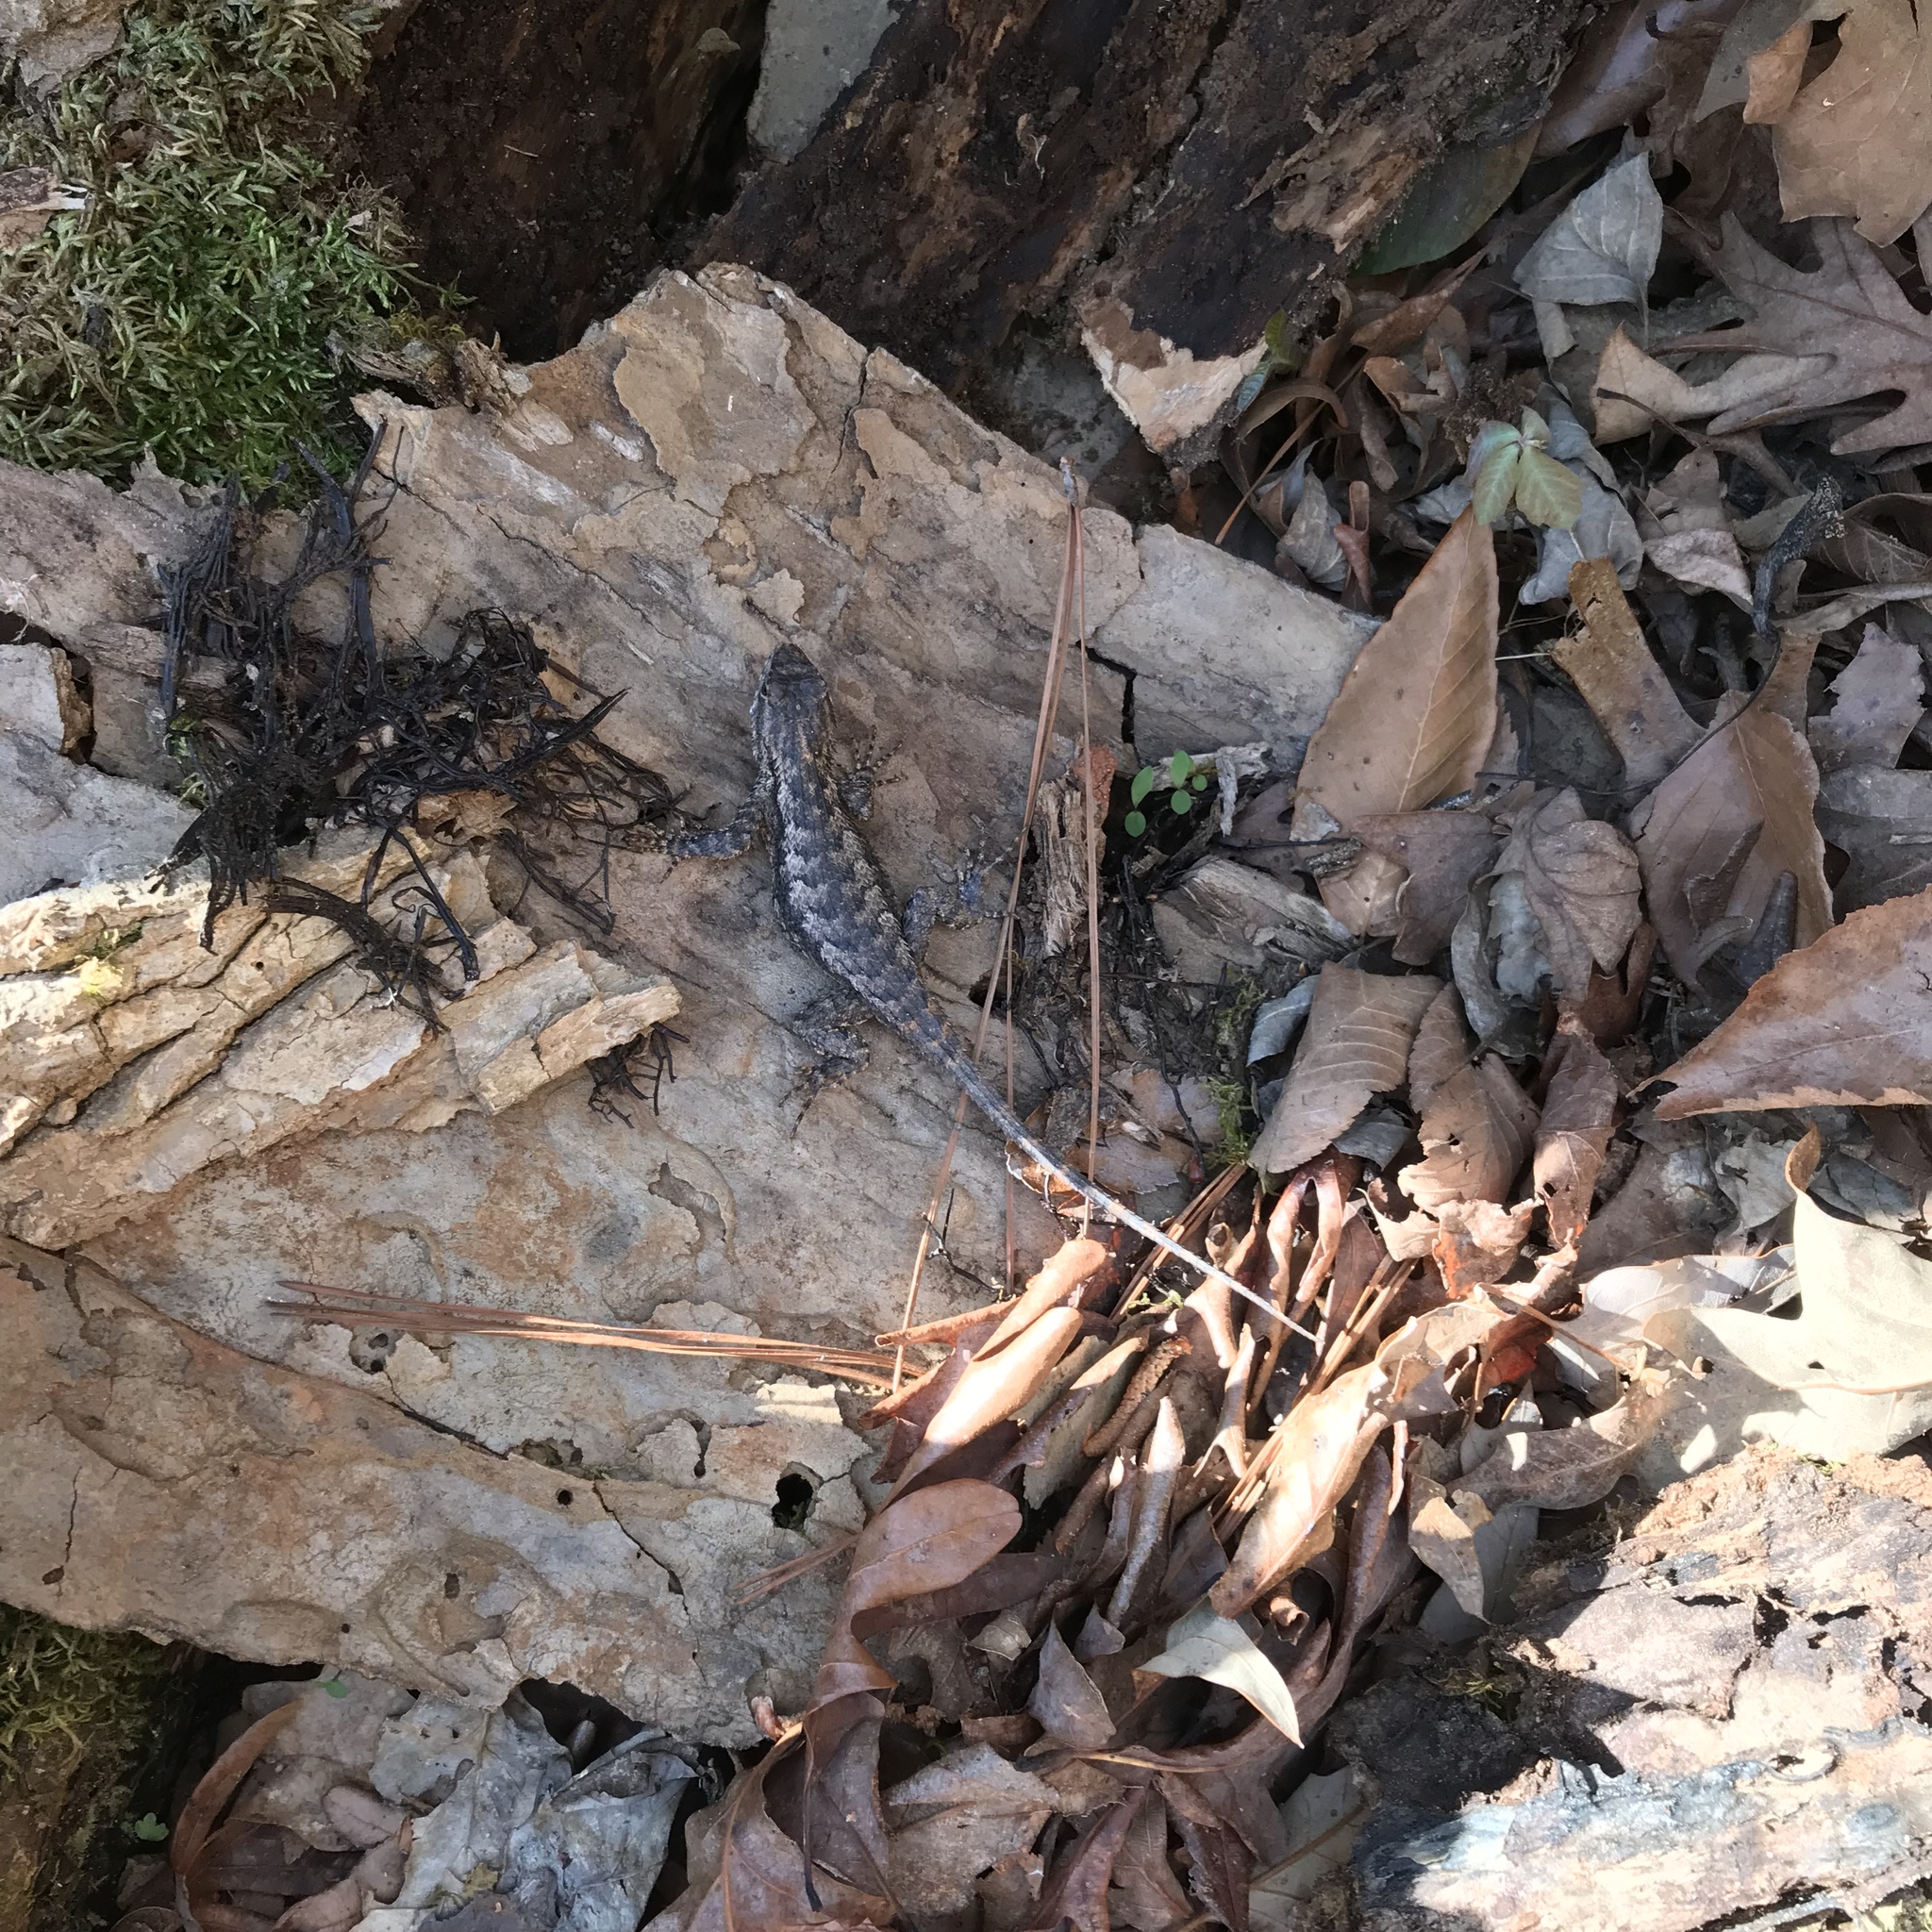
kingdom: Animalia
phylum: Chordata
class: Squamata
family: Phrynosomatidae
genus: Sceloporus
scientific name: Sceloporus undulatus
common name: Eastern fence lizard
